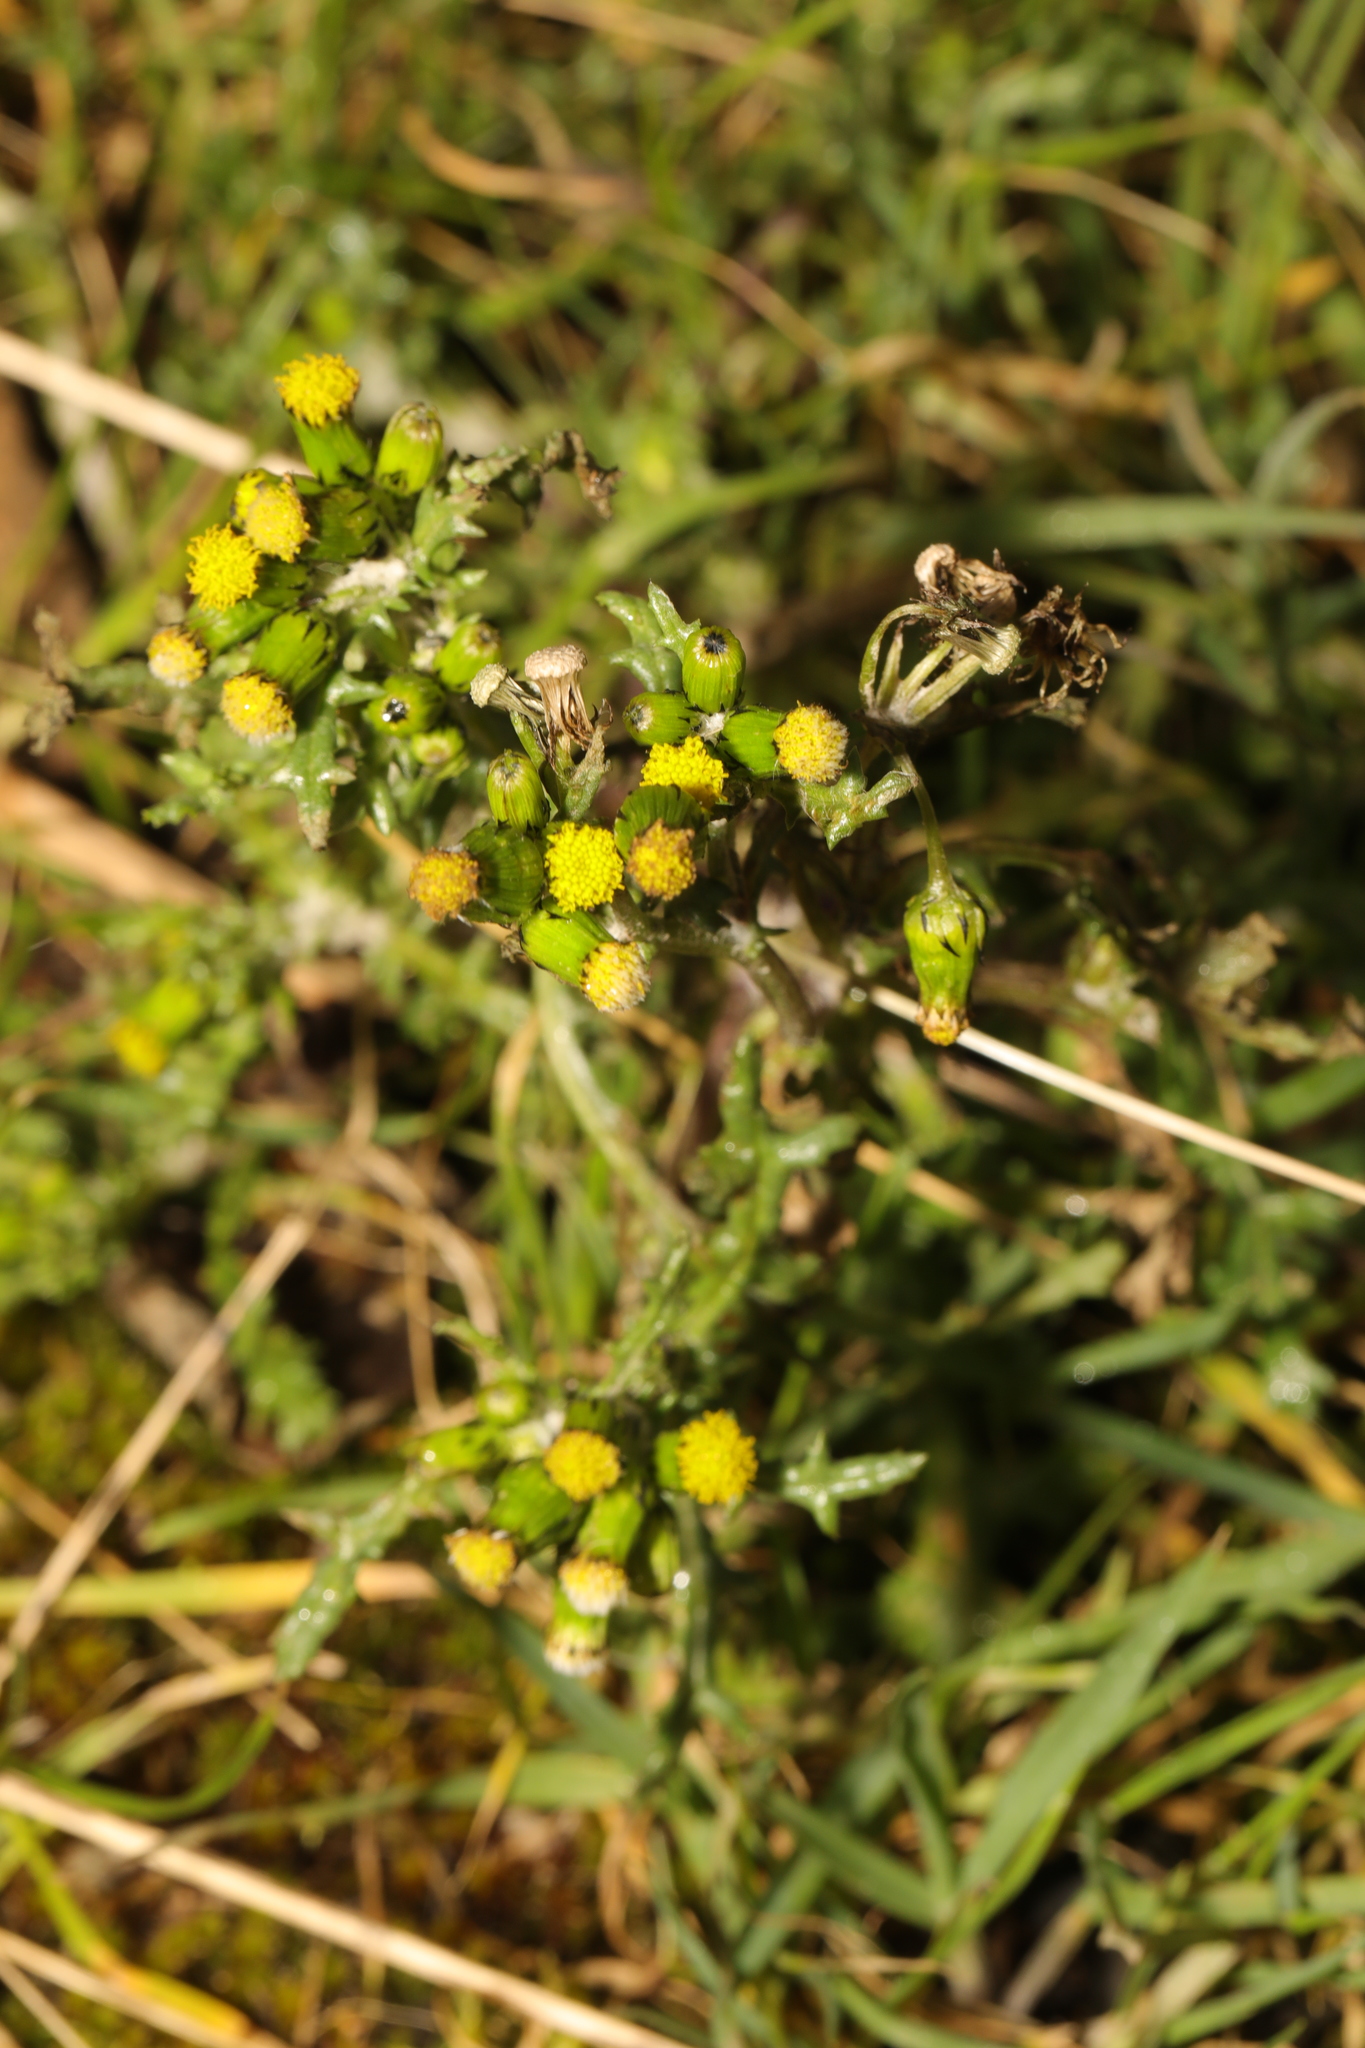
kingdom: Plantae
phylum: Tracheophyta
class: Magnoliopsida
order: Asterales
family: Asteraceae
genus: Senecio
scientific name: Senecio vulgaris
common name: Old-man-in-the-spring
